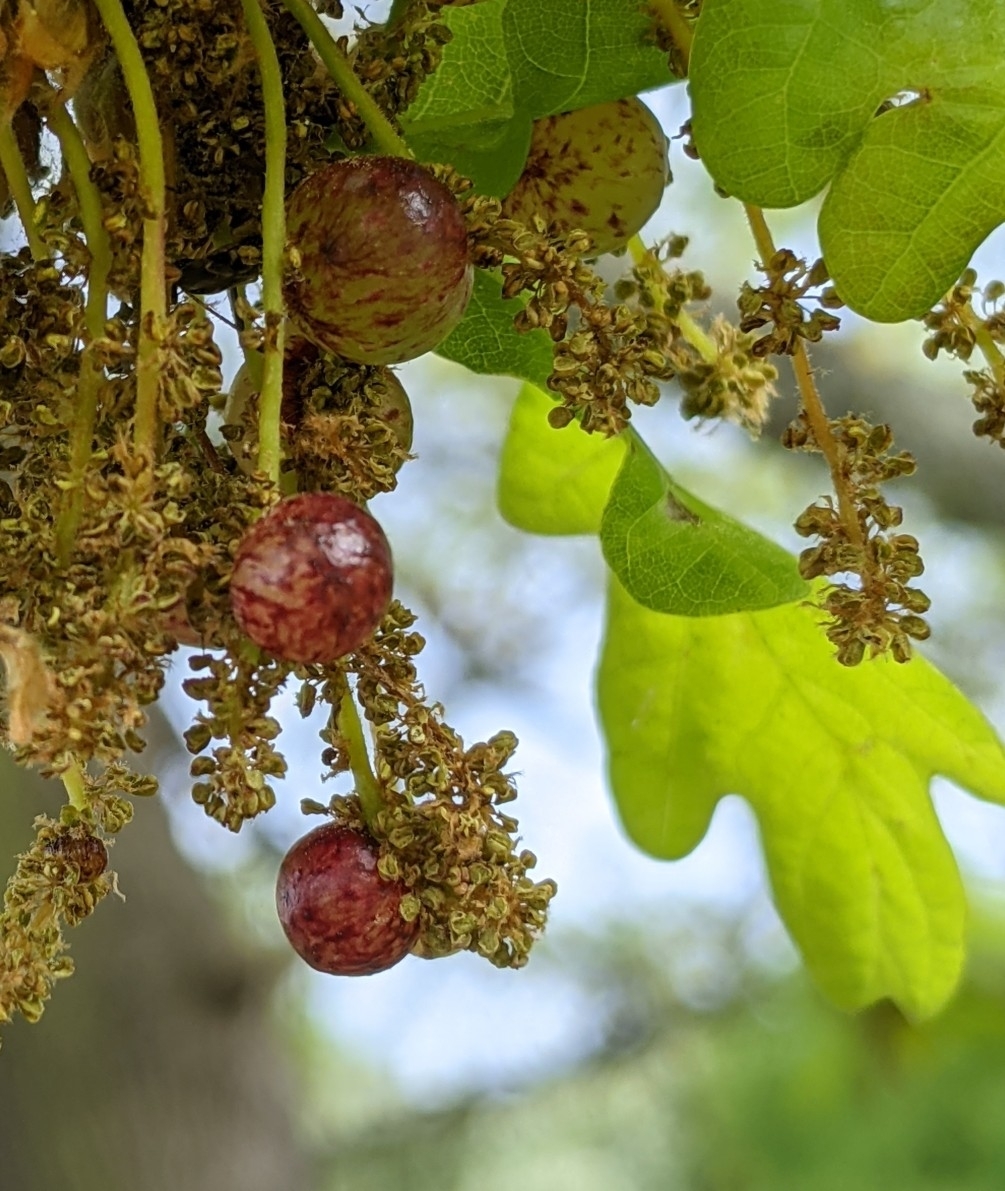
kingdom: Animalia
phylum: Arthropoda
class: Insecta
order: Hymenoptera
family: Cynipidae
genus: Neuroterus
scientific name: Neuroterus quercusbaccarum
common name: Common spangle gall
